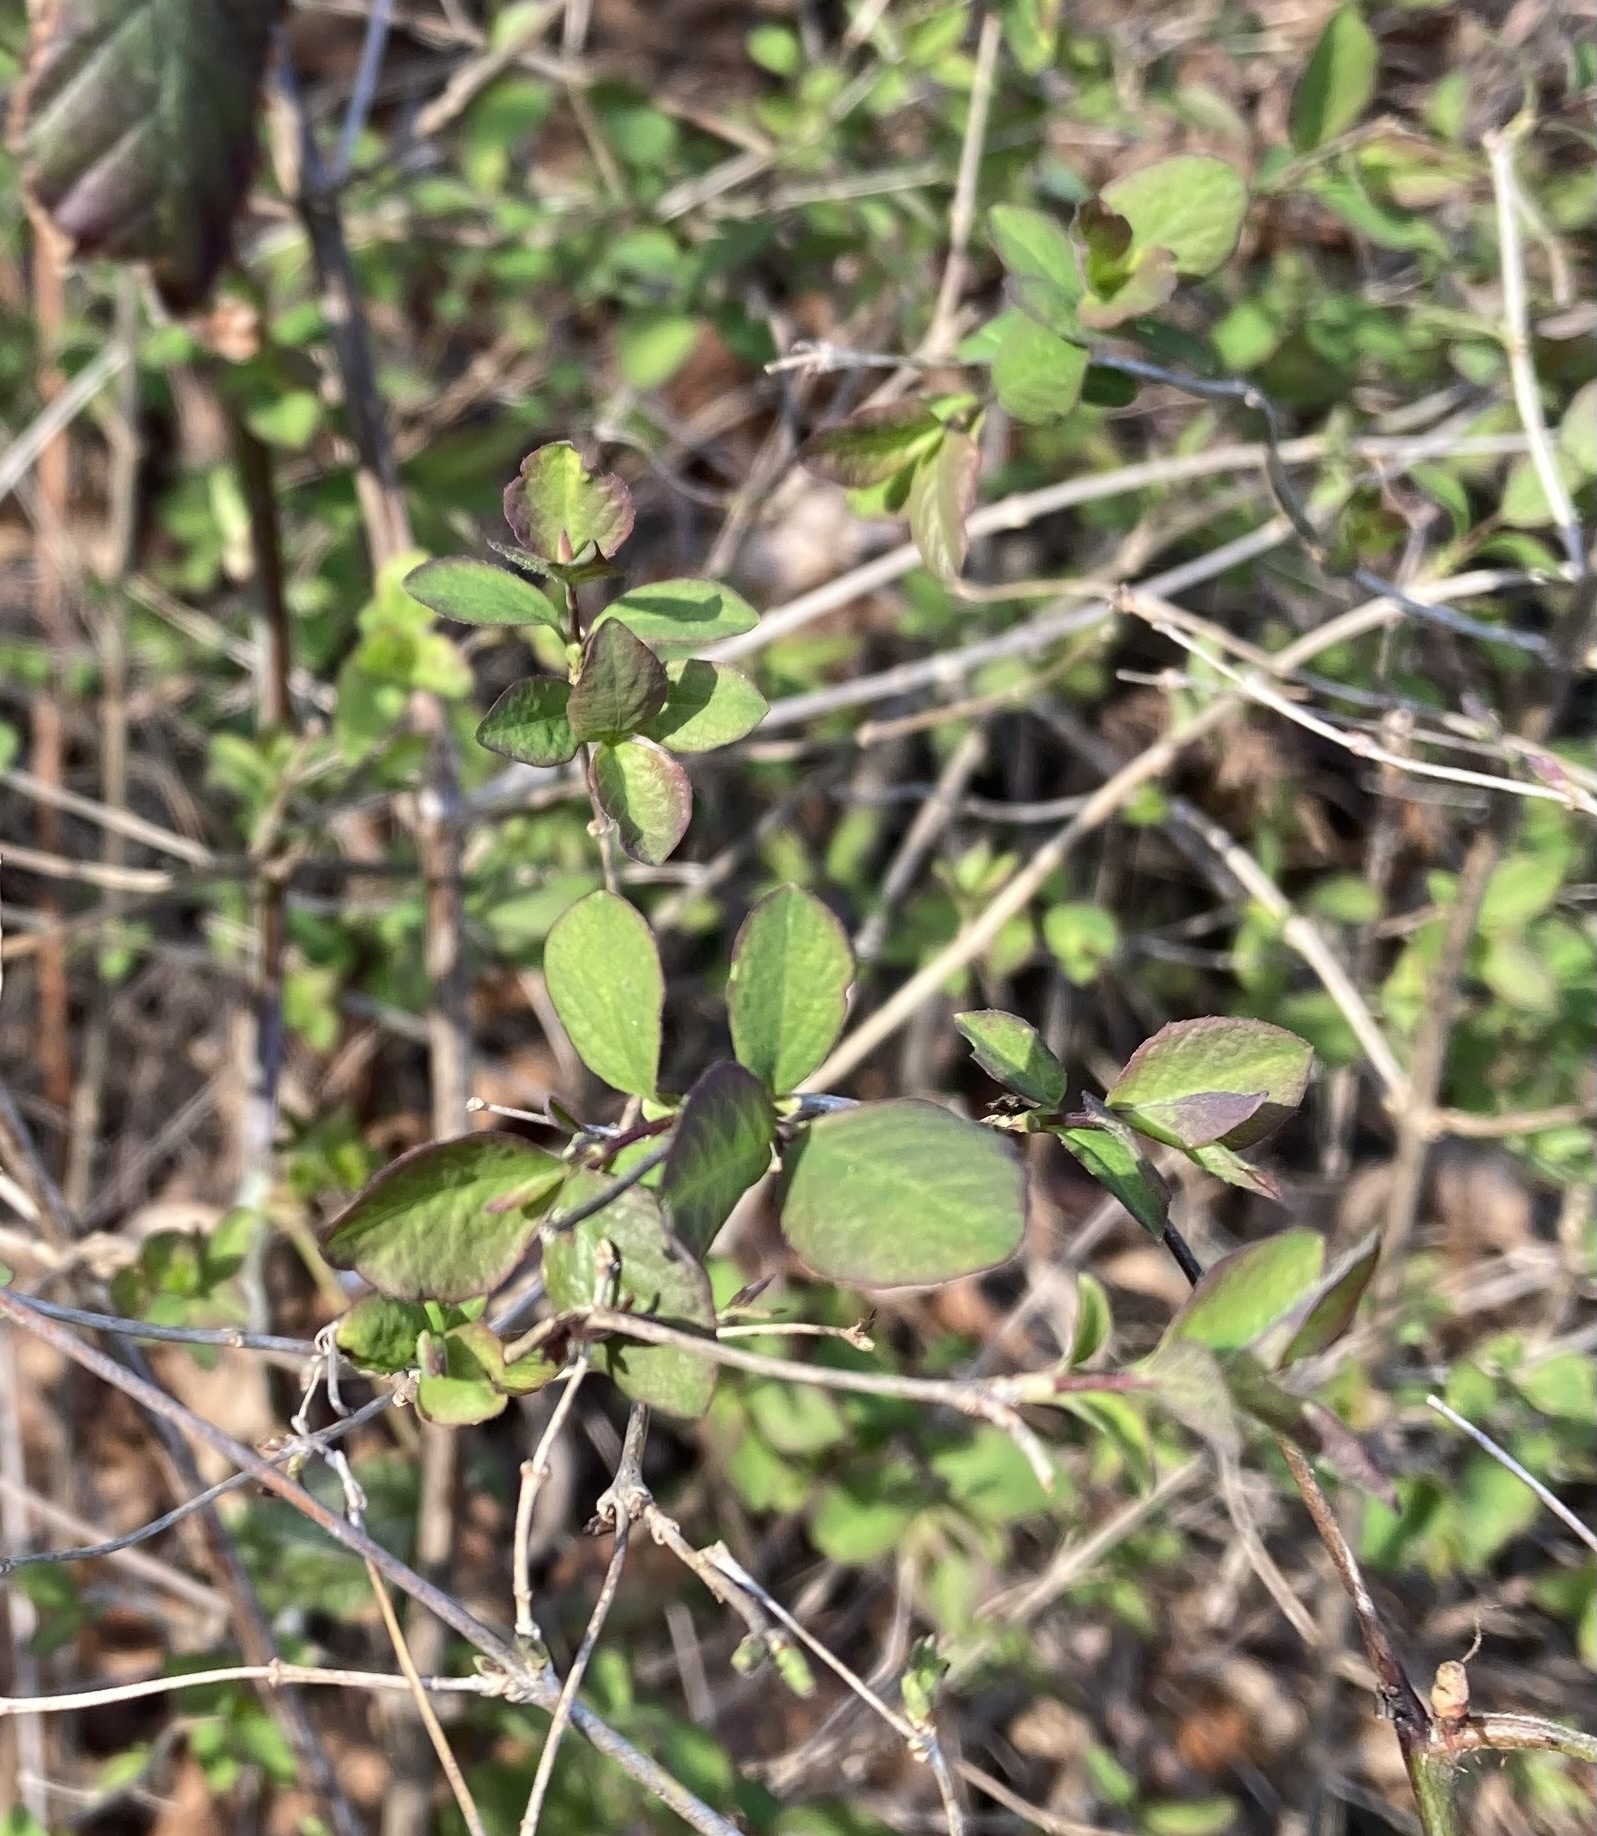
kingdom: Plantae
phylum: Tracheophyta
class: Magnoliopsida
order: Dipsacales
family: Caprifoliaceae
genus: Symphoricarpos
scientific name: Symphoricarpos albus
